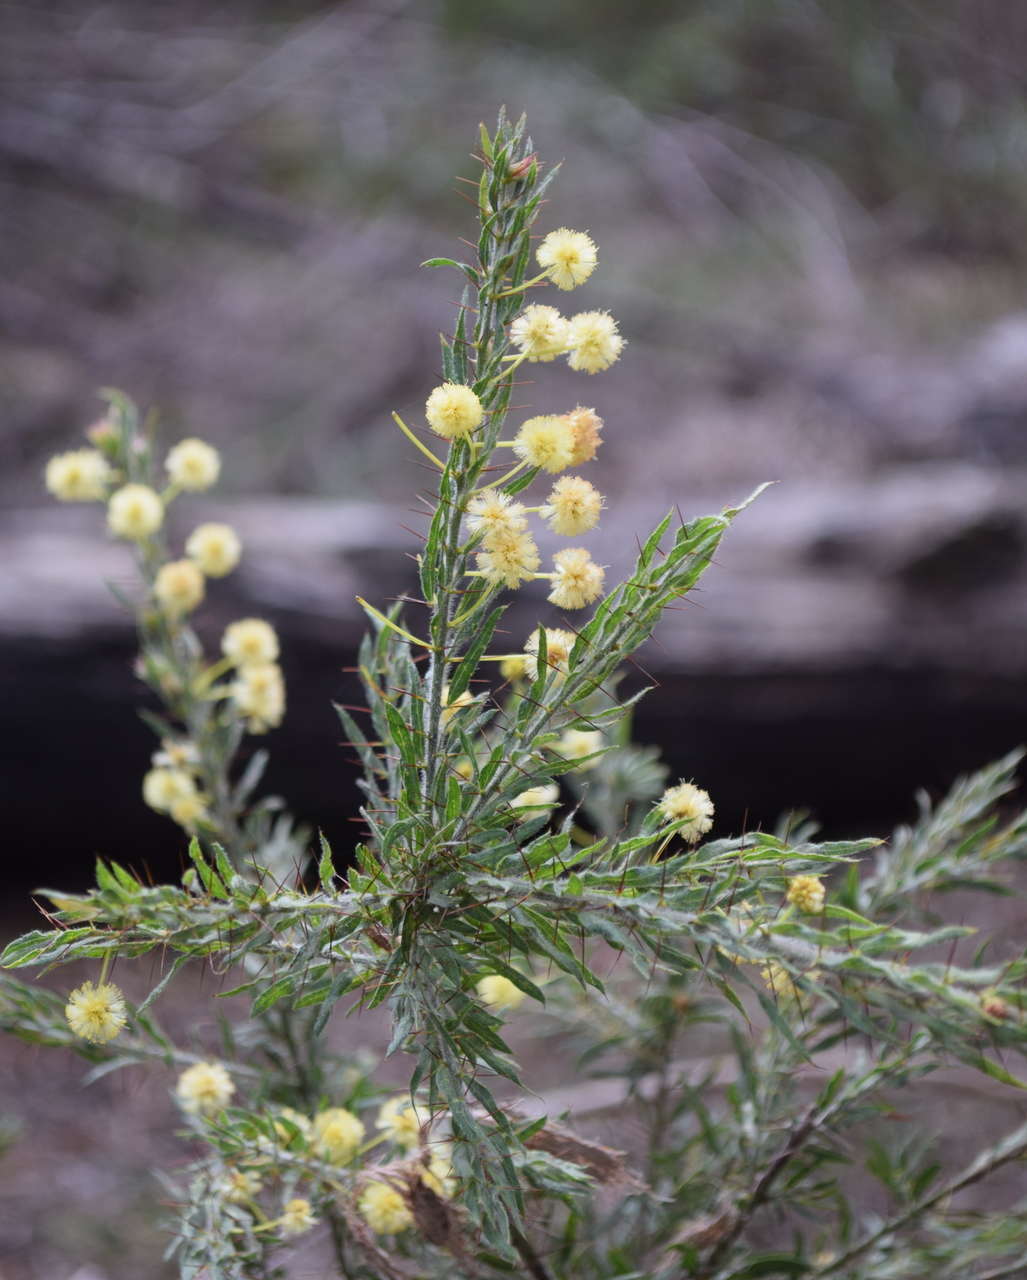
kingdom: Plantae
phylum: Tracheophyta
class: Magnoliopsida
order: Fabales
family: Fabaceae
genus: Acacia
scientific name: Acacia paradoxa
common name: Paradox acacia
